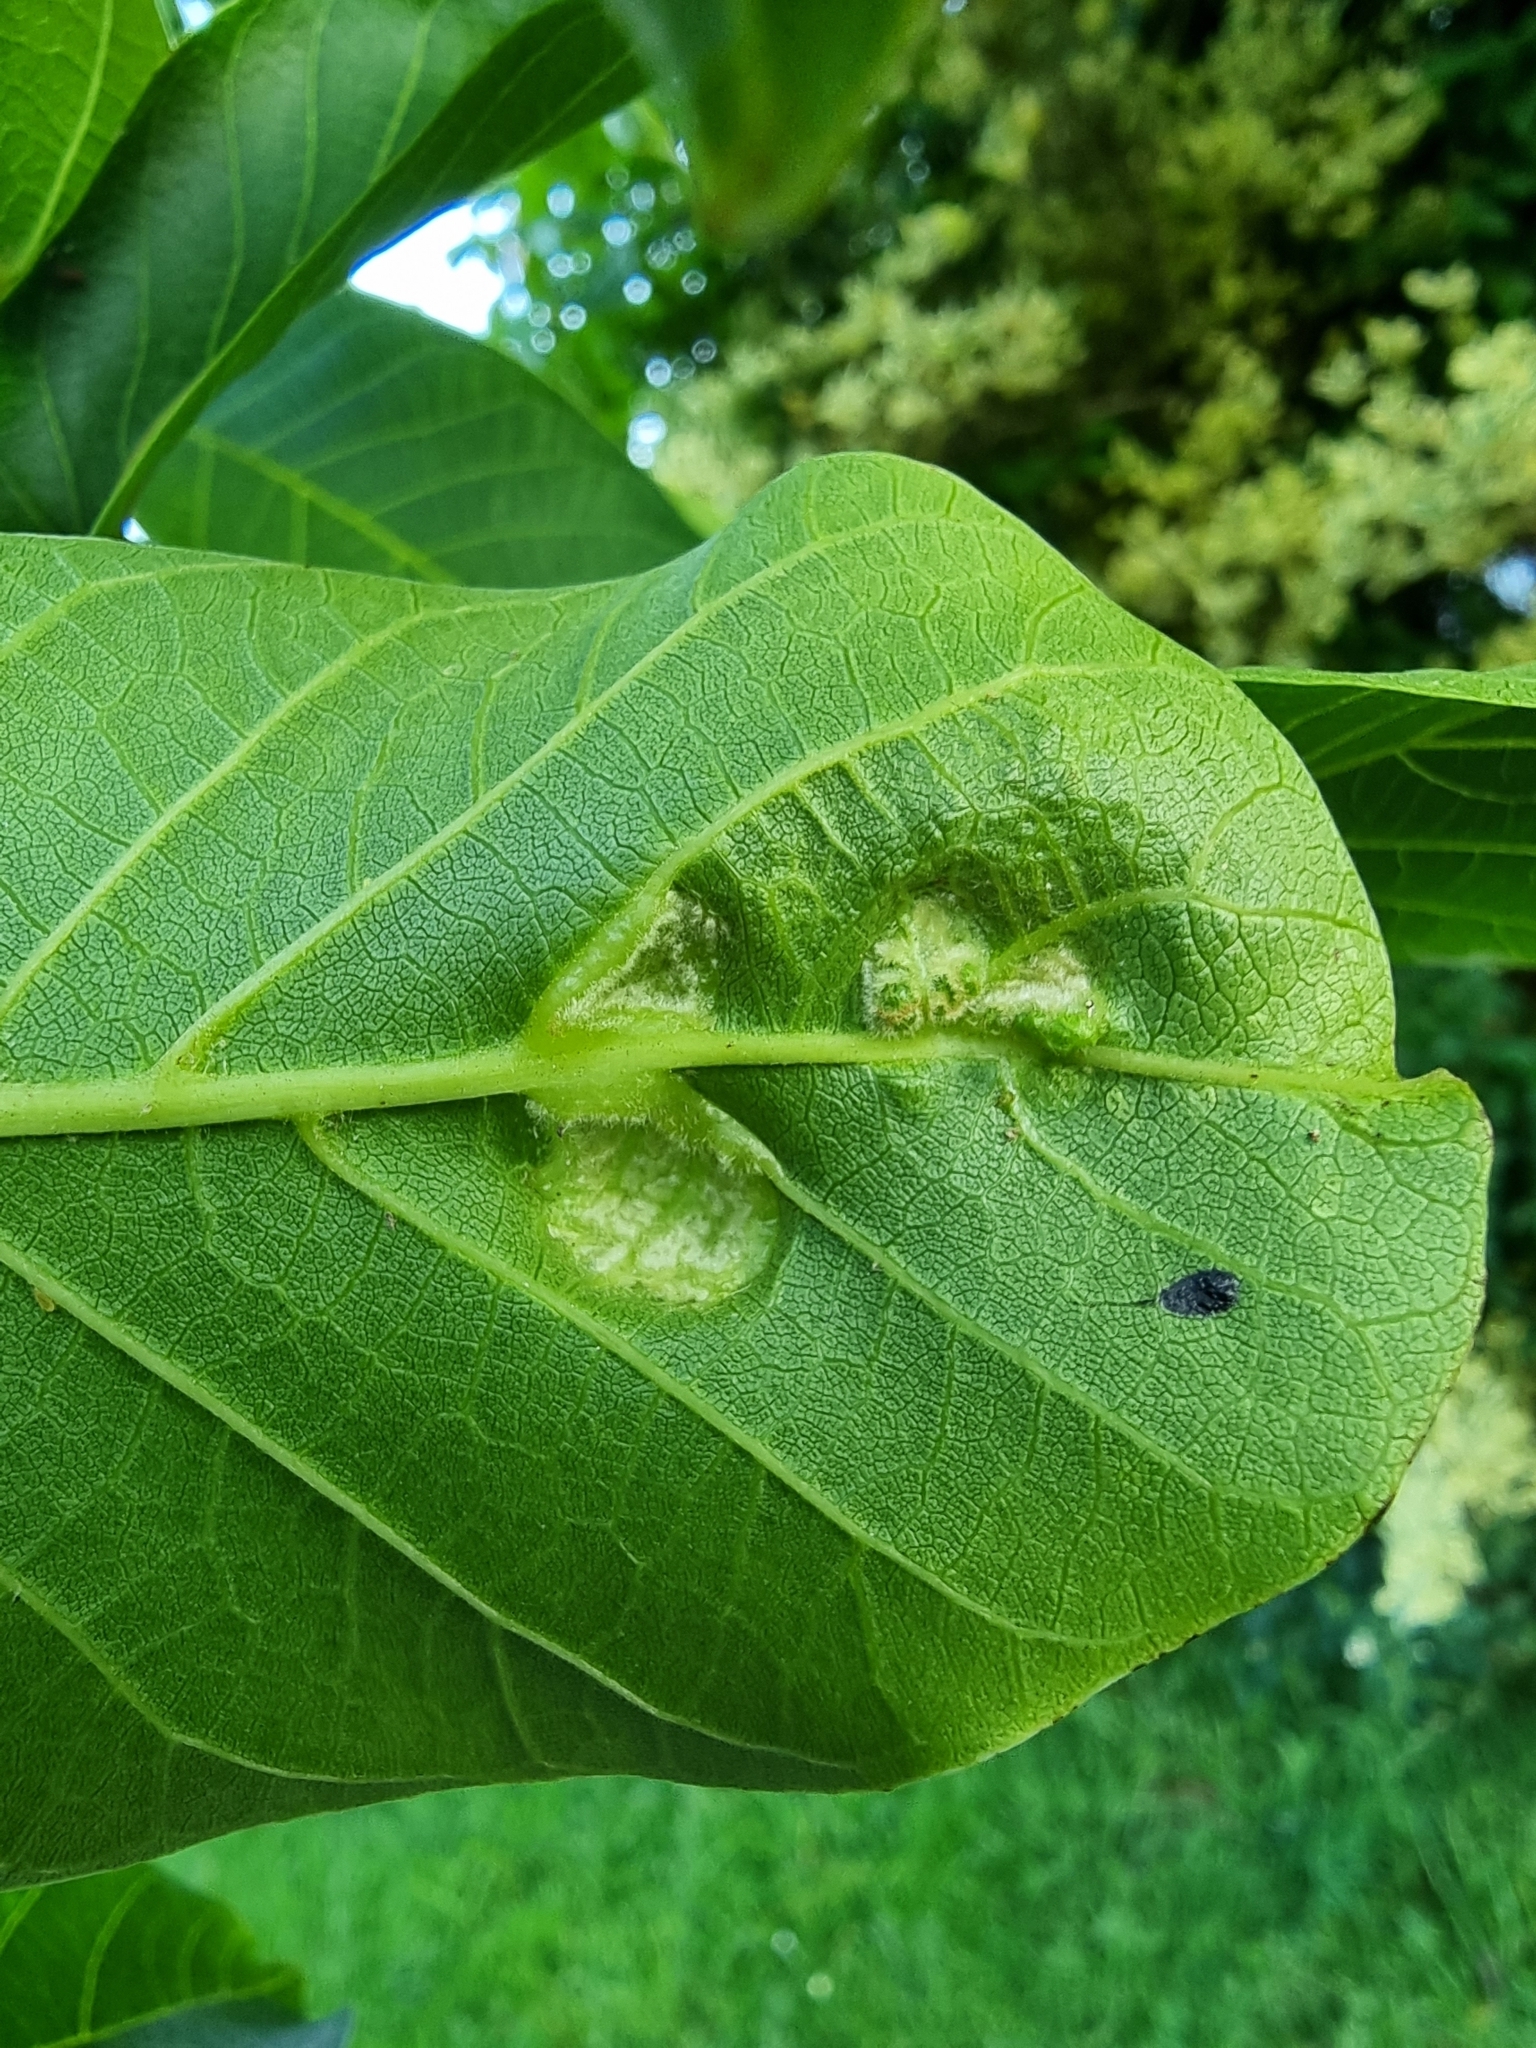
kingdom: Animalia
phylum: Arthropoda
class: Arachnida
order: Trombidiformes
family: Eriophyidae
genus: Aceria
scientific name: Aceria erinea
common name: Persian walnut erineum mite
